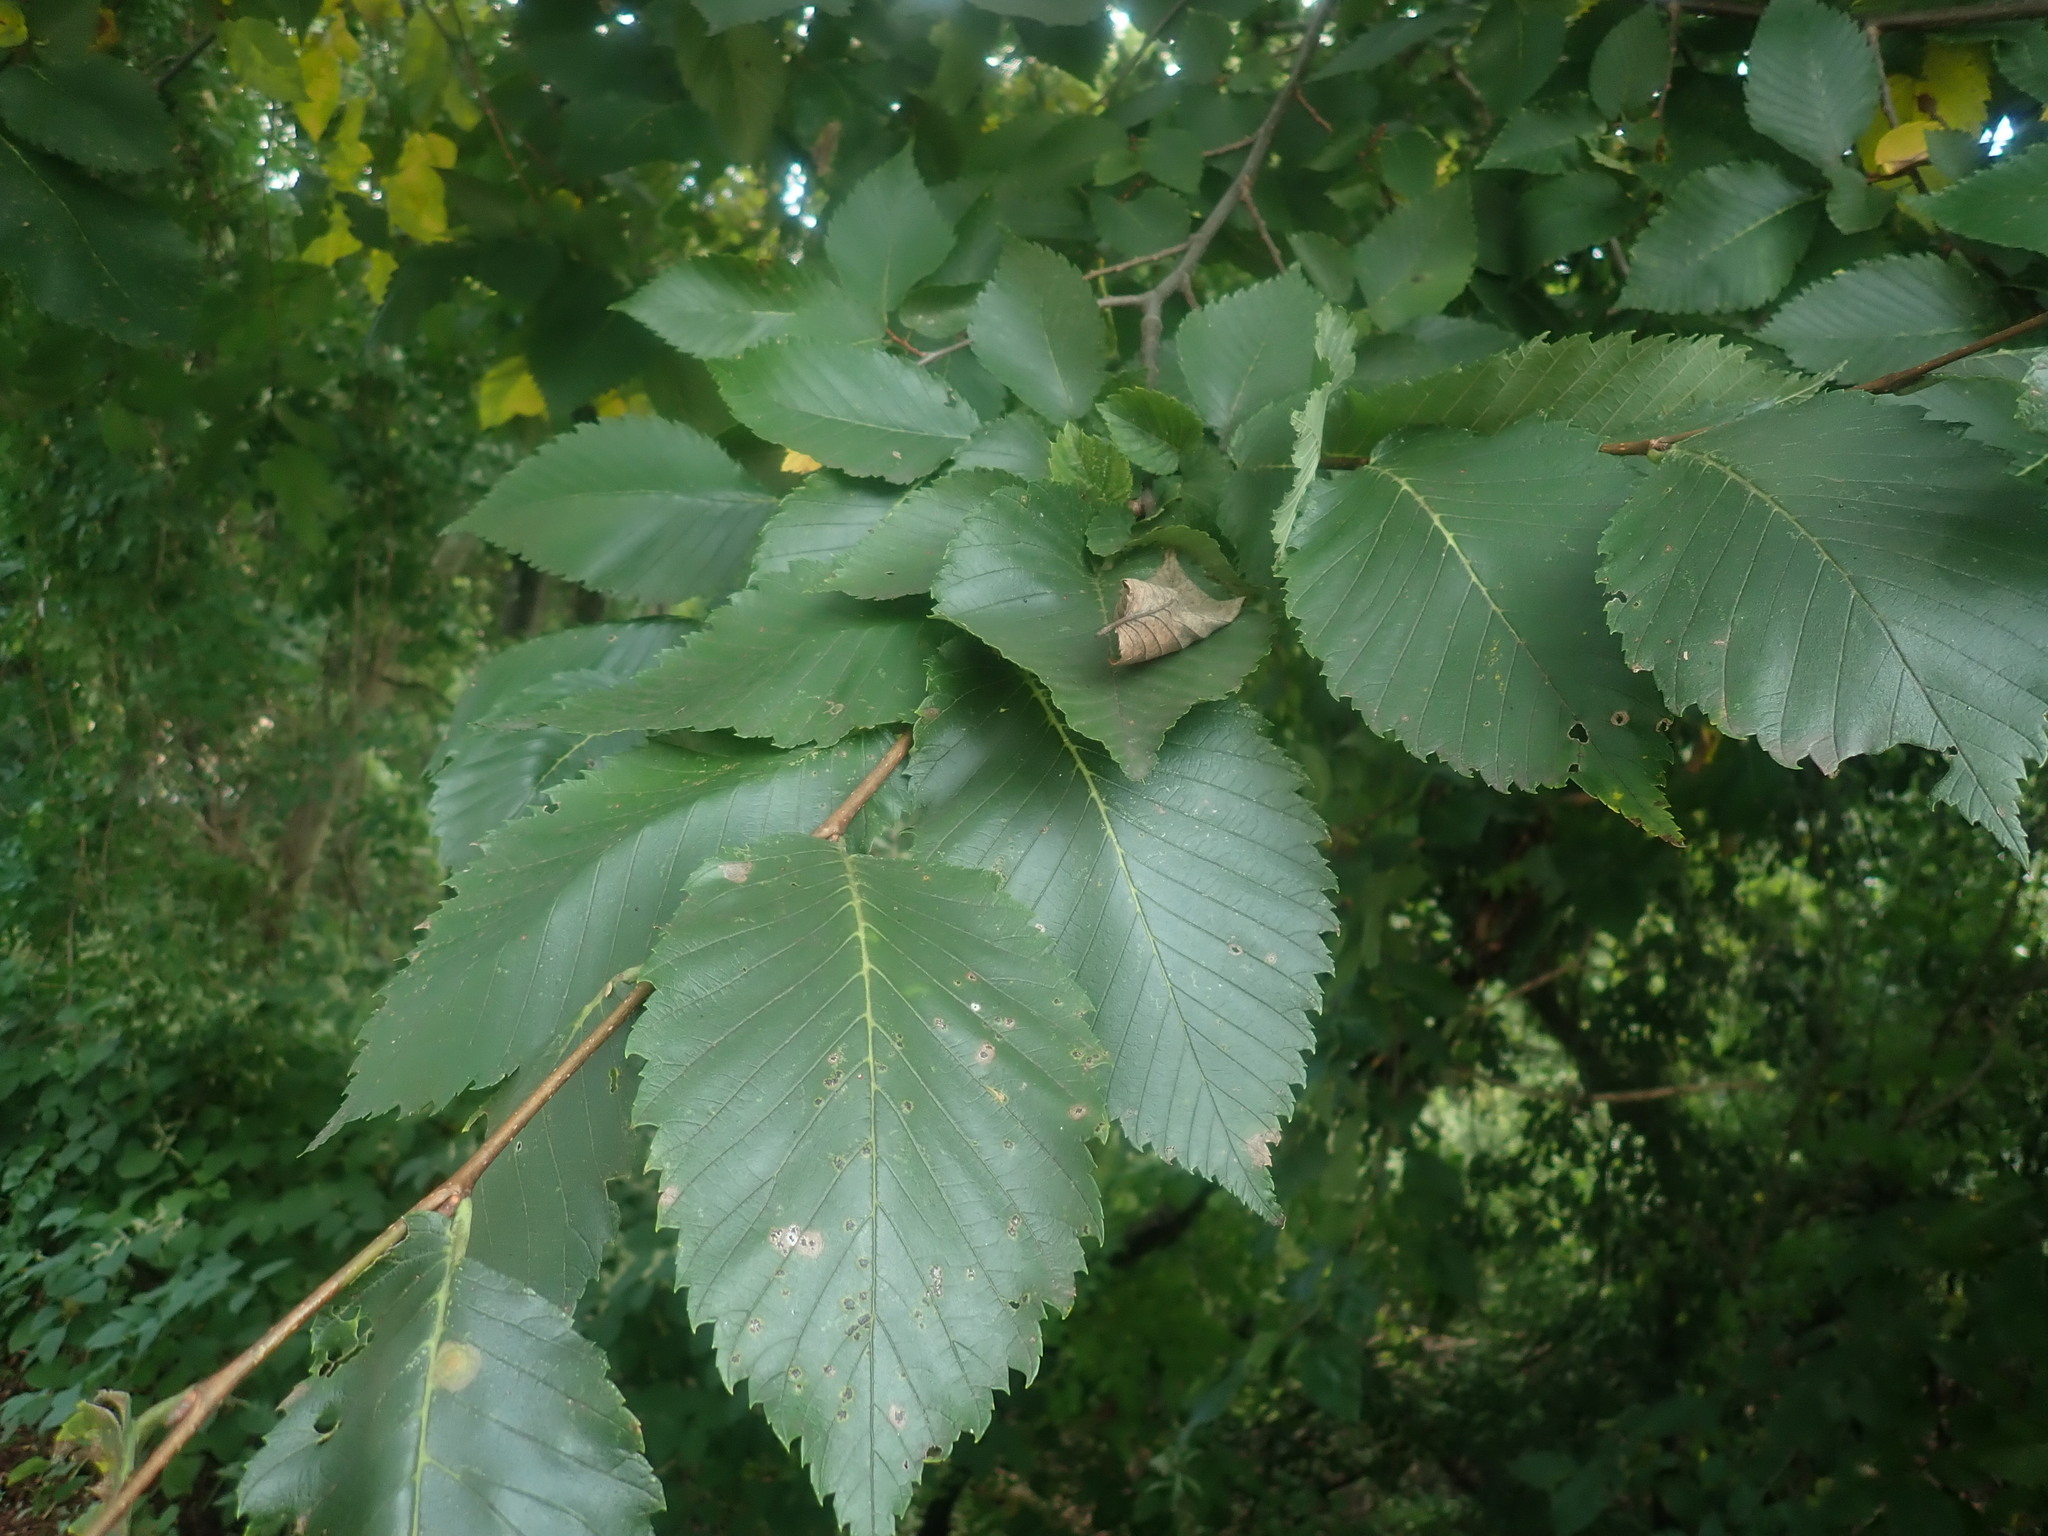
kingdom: Plantae
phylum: Tracheophyta
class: Magnoliopsida
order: Rosales
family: Ulmaceae
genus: Ulmus
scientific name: Ulmus americana
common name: American elm
